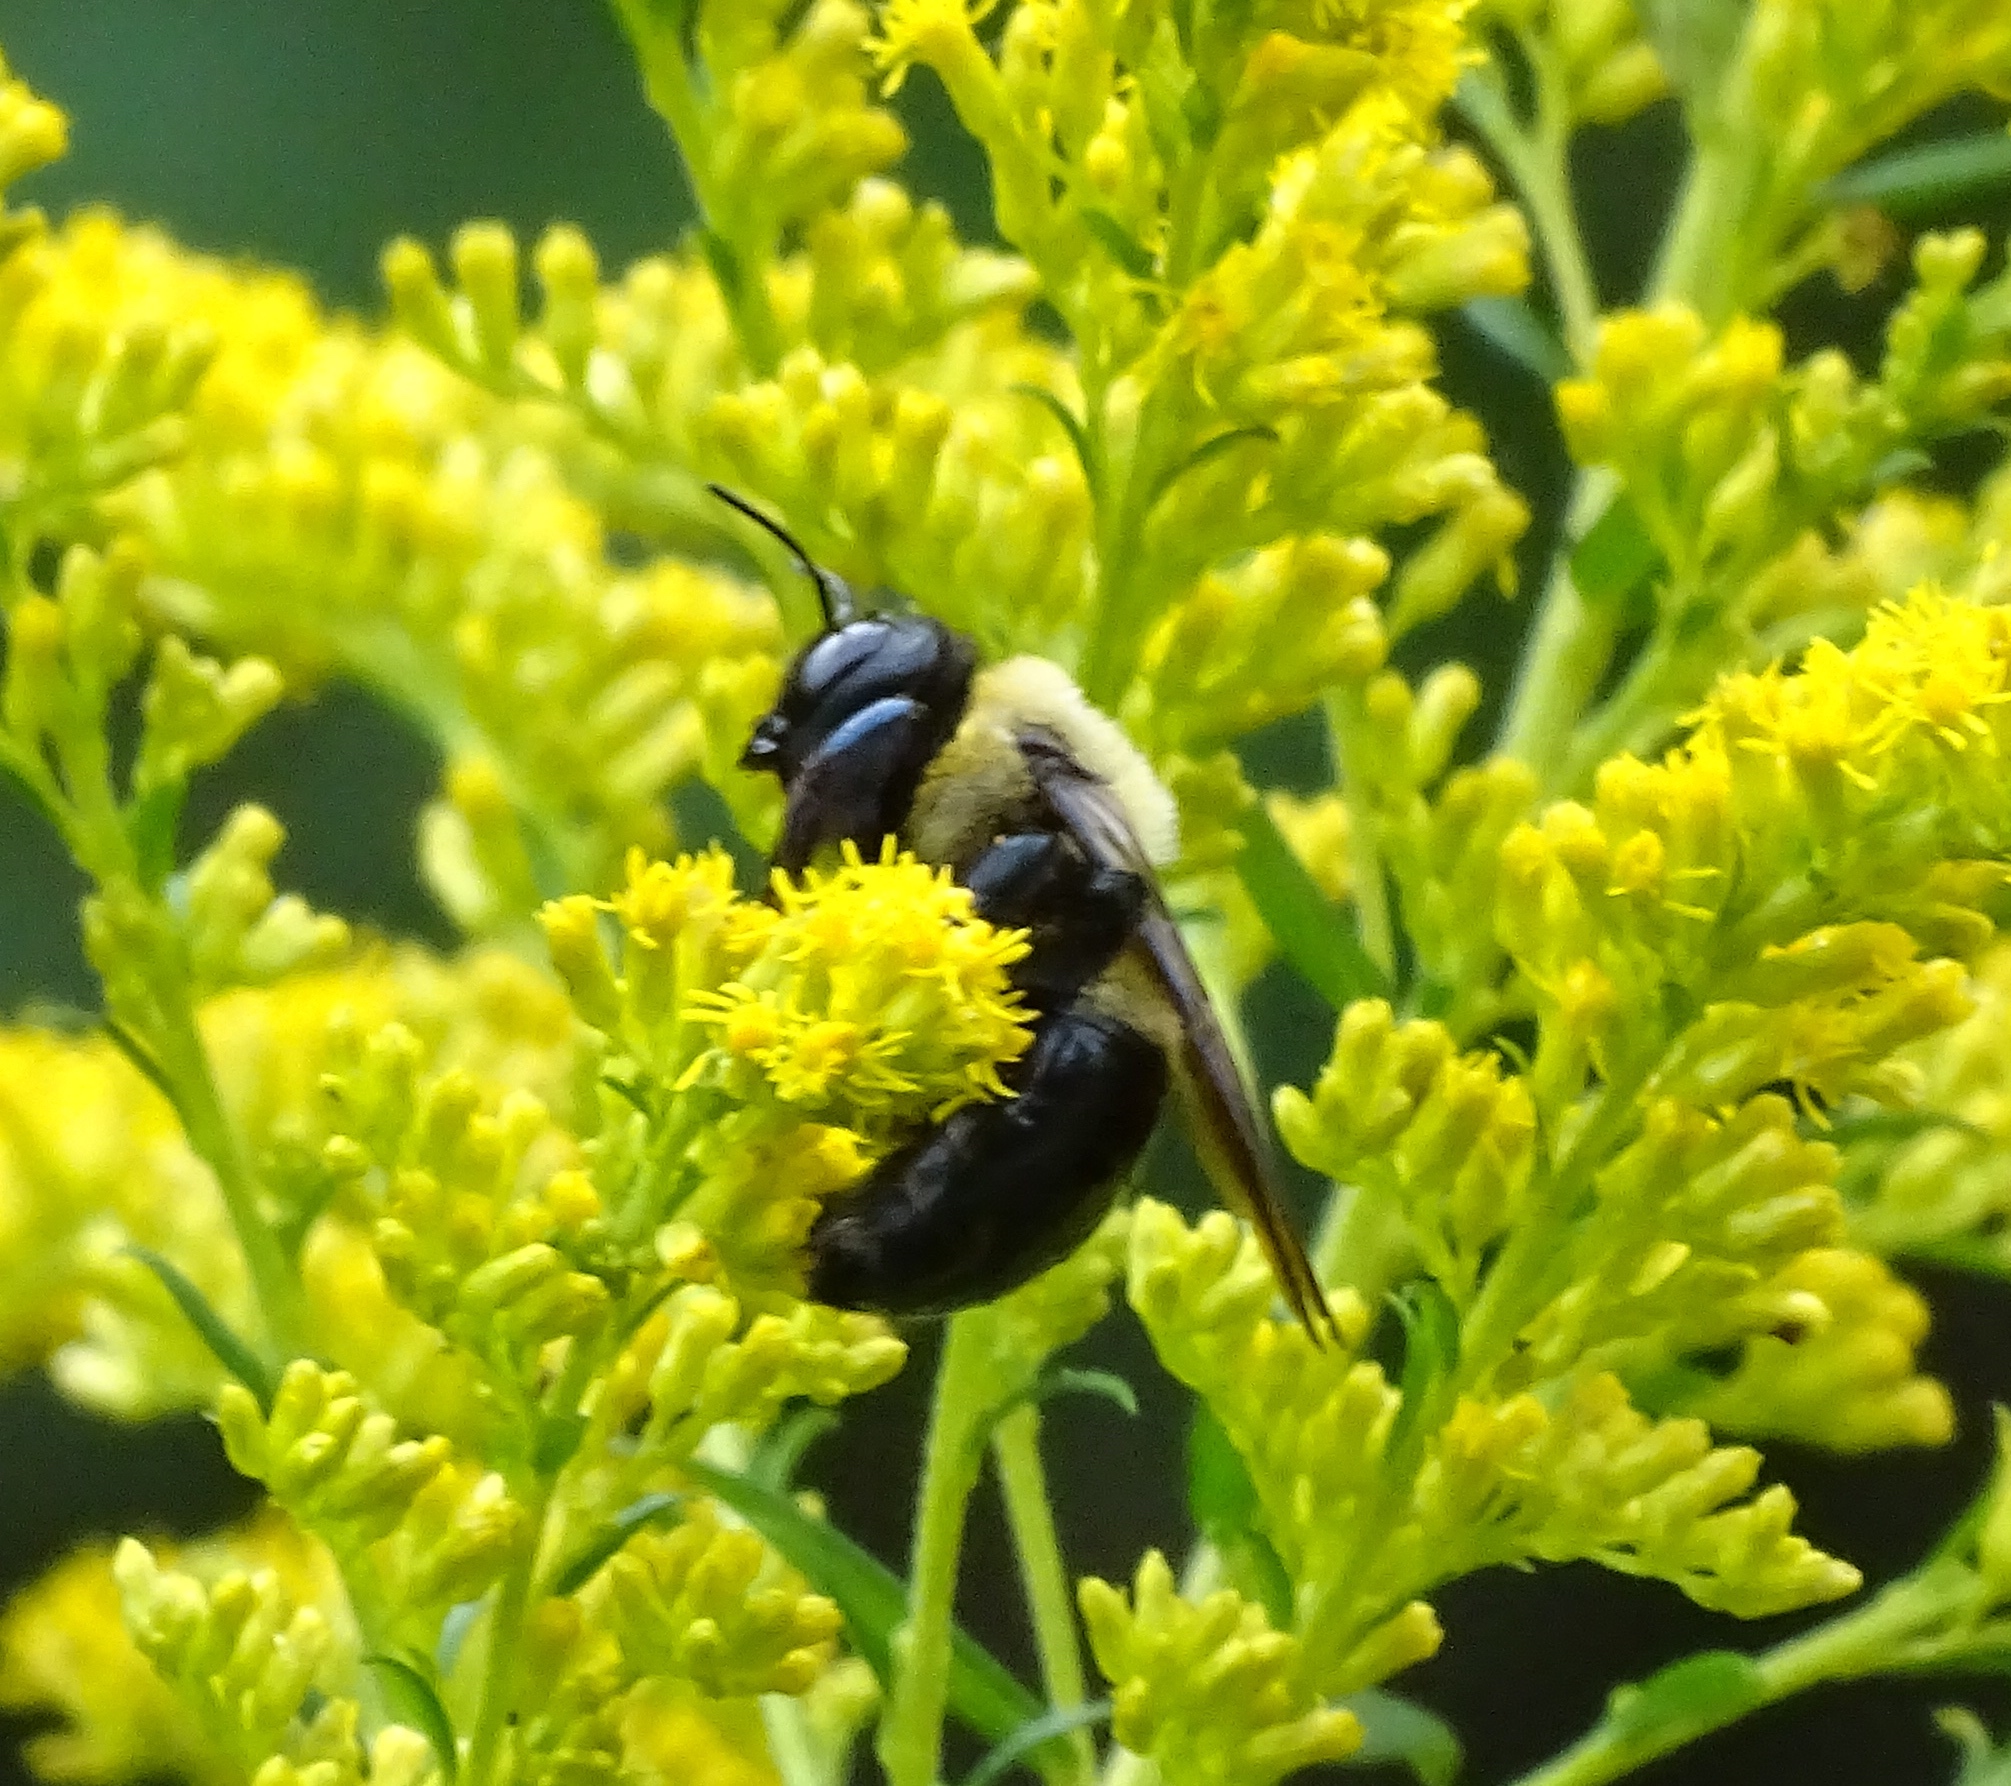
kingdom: Animalia
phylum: Arthropoda
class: Insecta
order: Hymenoptera
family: Apidae
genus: Xylocopa
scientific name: Xylocopa virginica
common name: Carpenter bee
